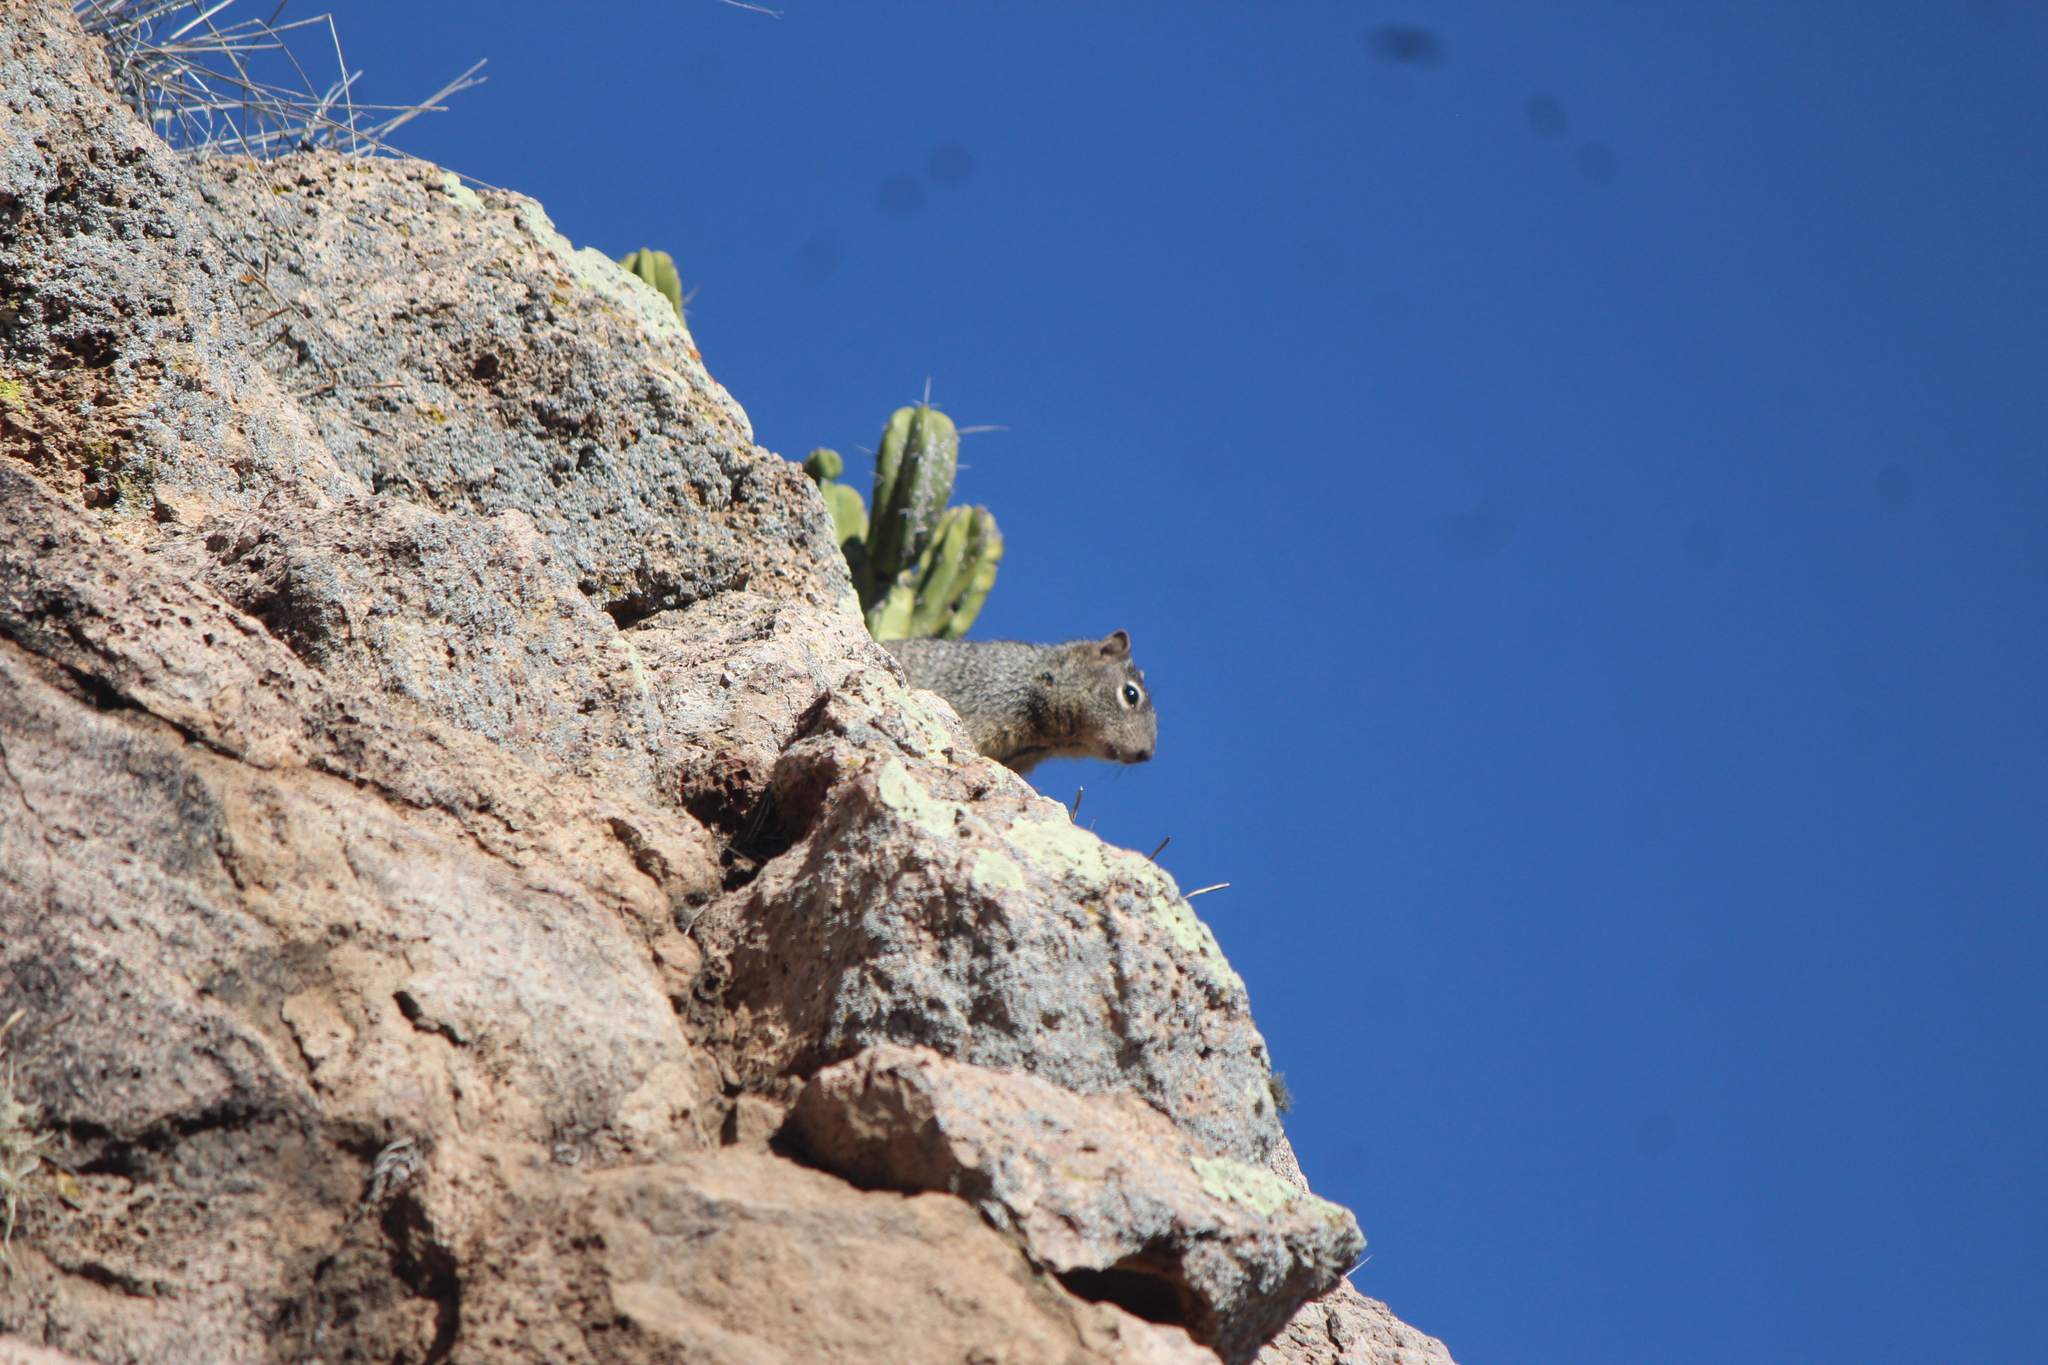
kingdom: Animalia
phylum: Chordata
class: Mammalia
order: Rodentia
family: Sciuridae
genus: Otospermophilus
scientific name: Otospermophilus variegatus
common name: Rock squirrel
